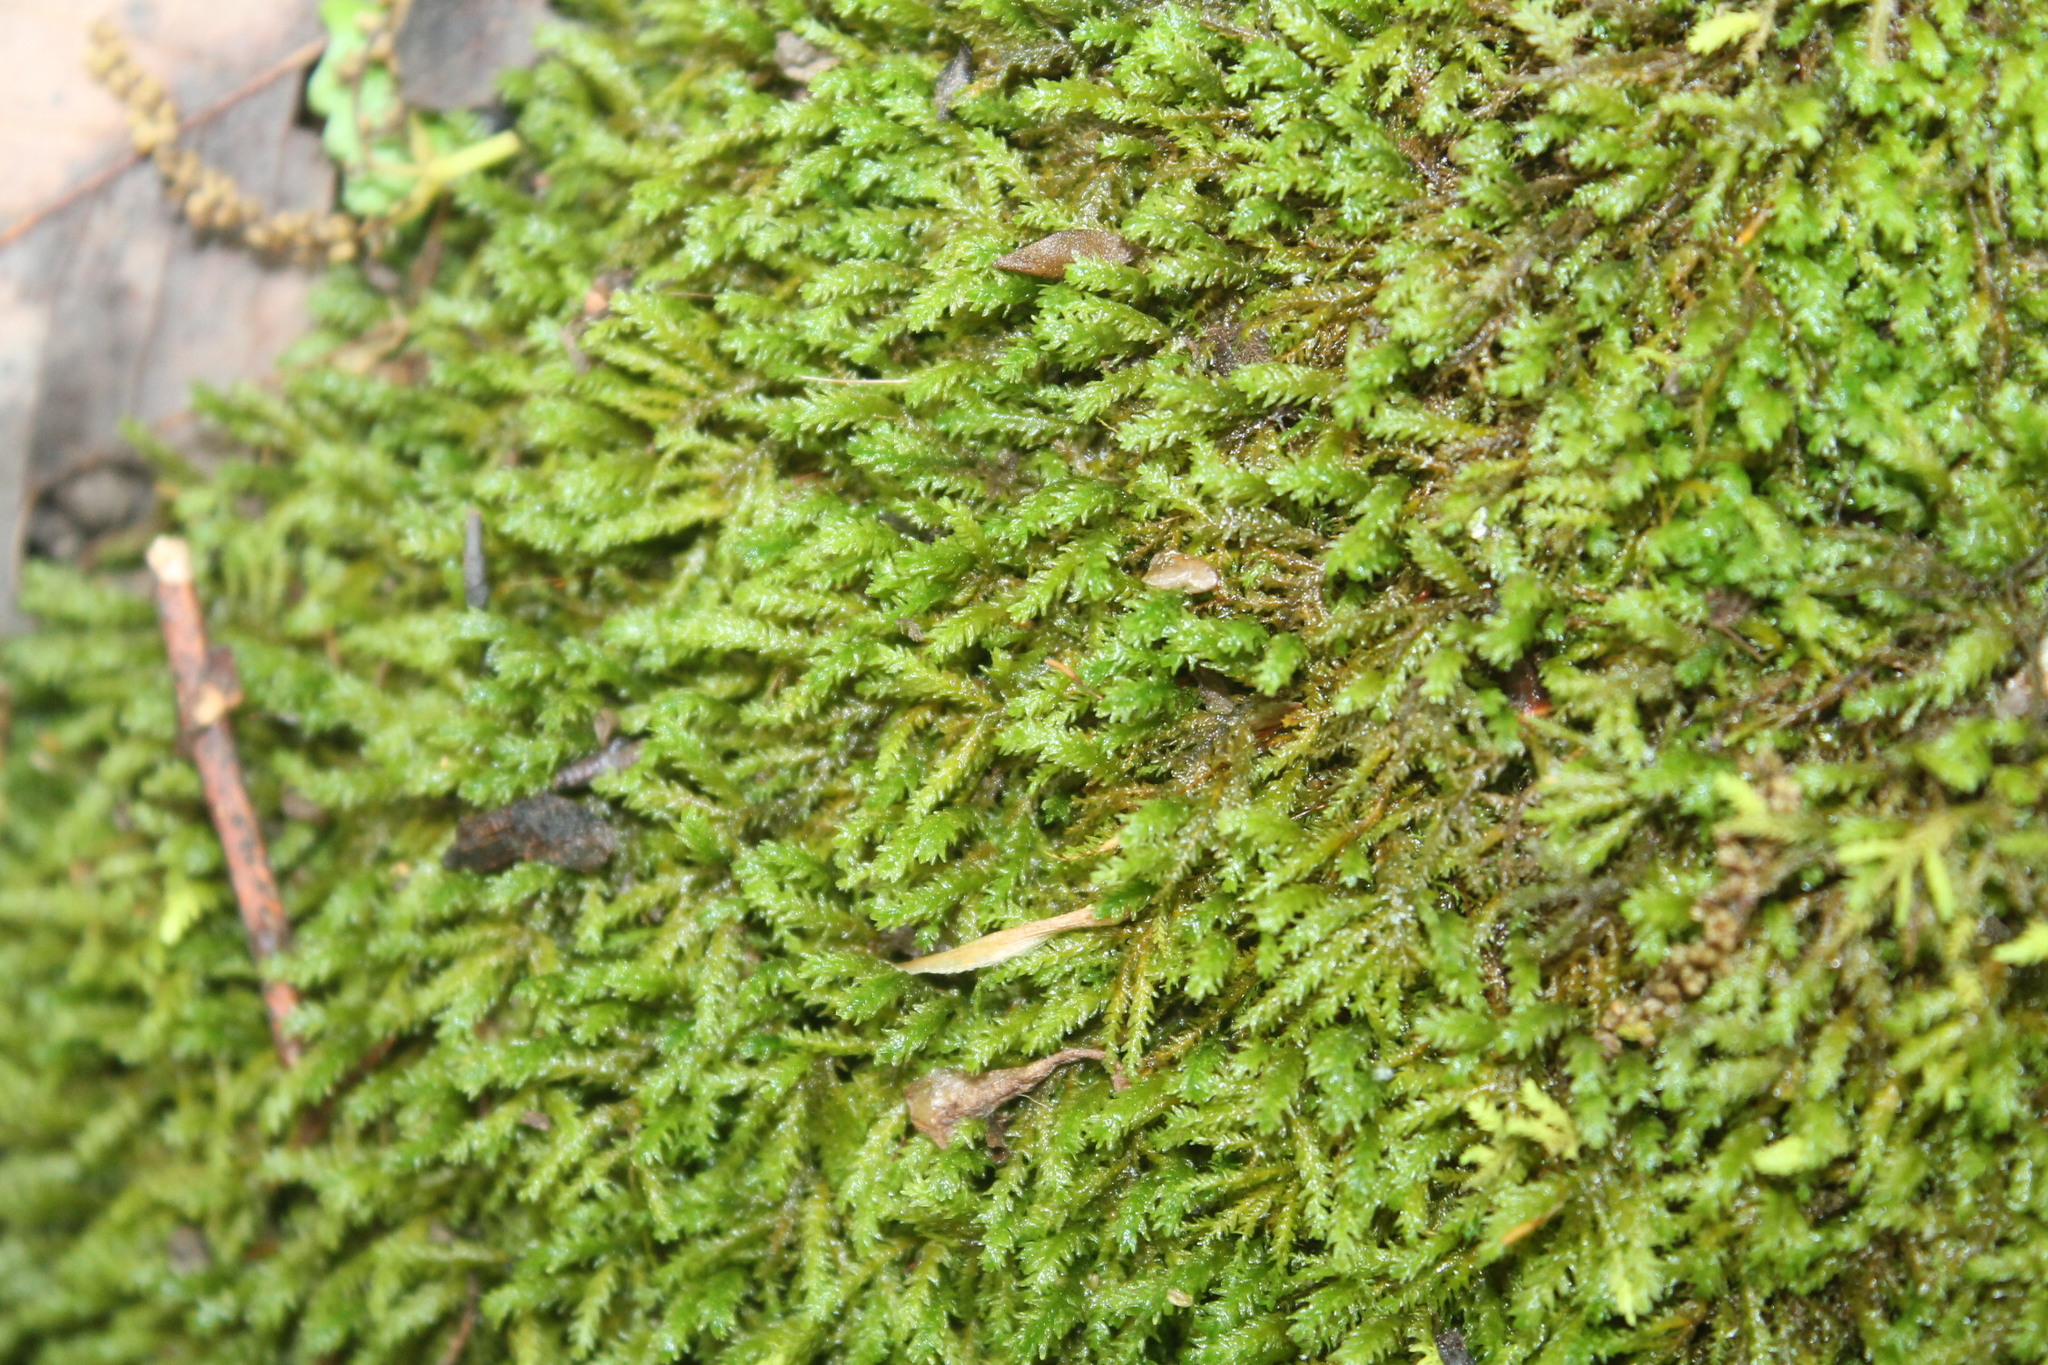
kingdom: Plantae
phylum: Bryophyta
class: Bryopsida
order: Hypnales
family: Neckeraceae
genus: Pseudanomodon
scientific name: Pseudanomodon attenuatus
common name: Tree-skirt moss
